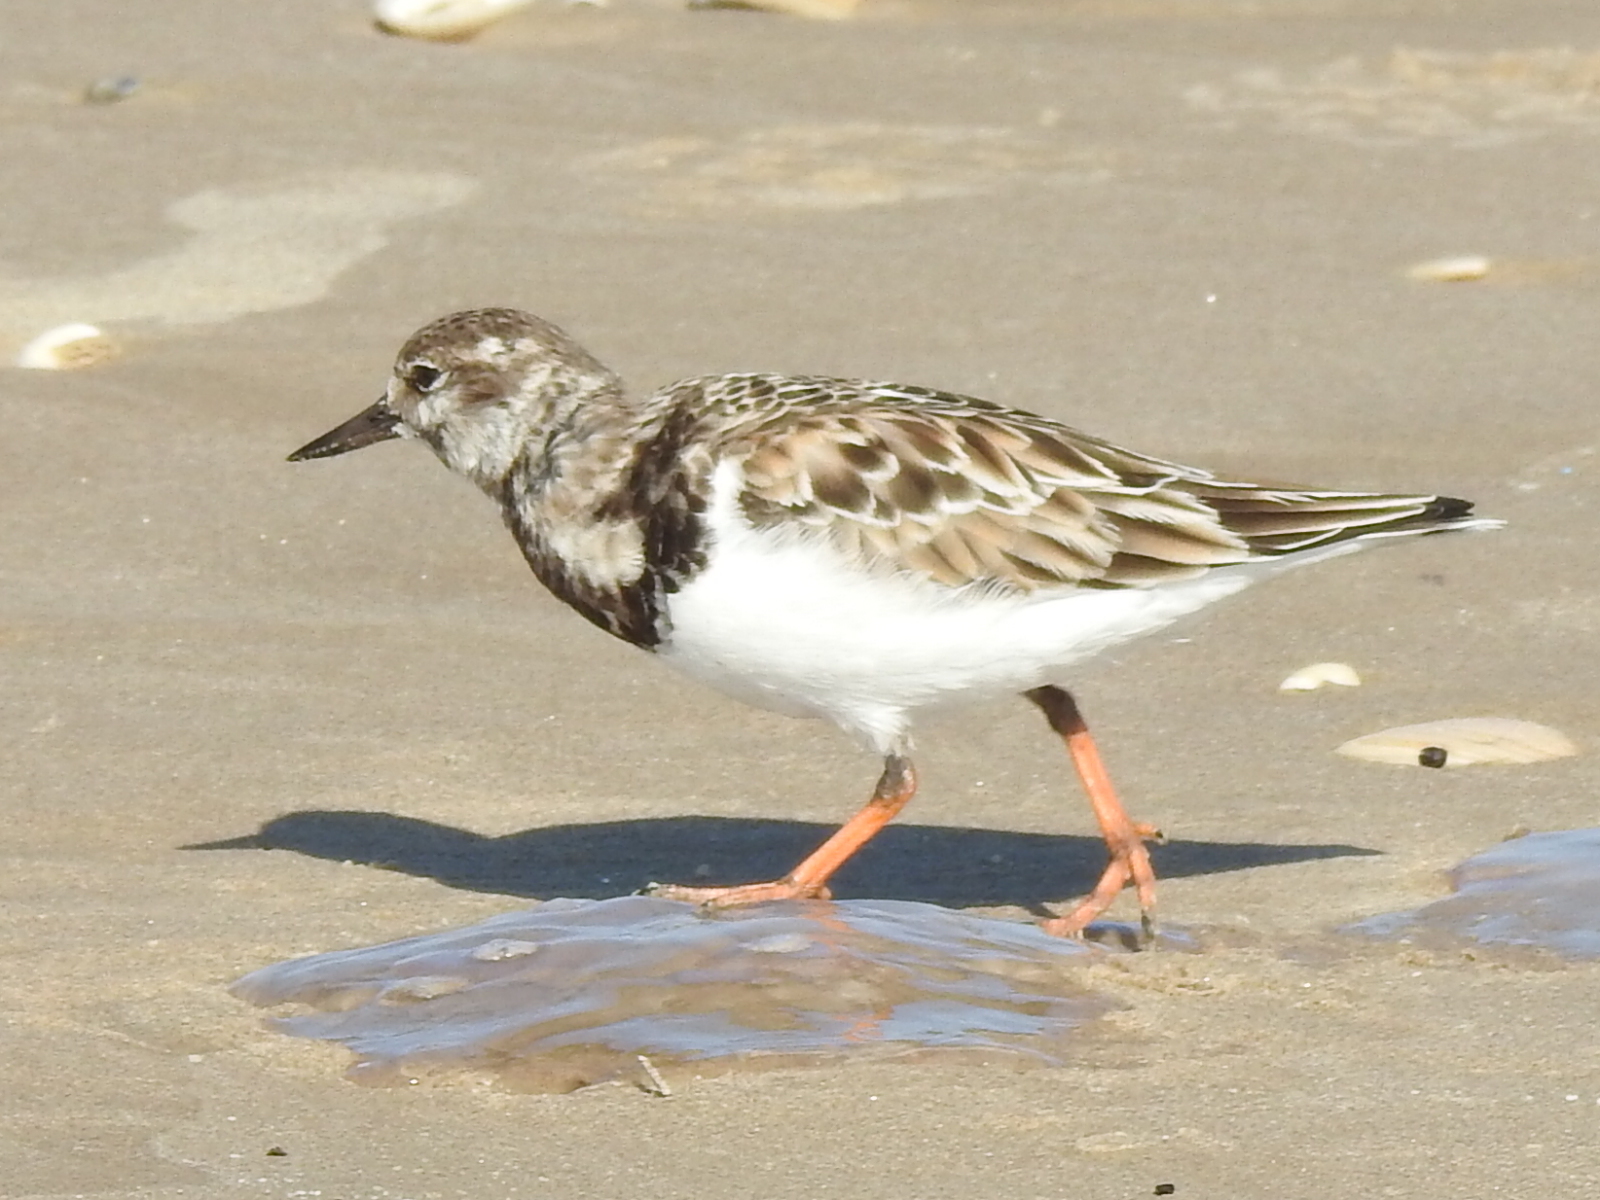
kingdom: Animalia
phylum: Chordata
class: Aves
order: Charadriiformes
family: Scolopacidae
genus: Arenaria
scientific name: Arenaria interpres
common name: Ruddy turnstone
